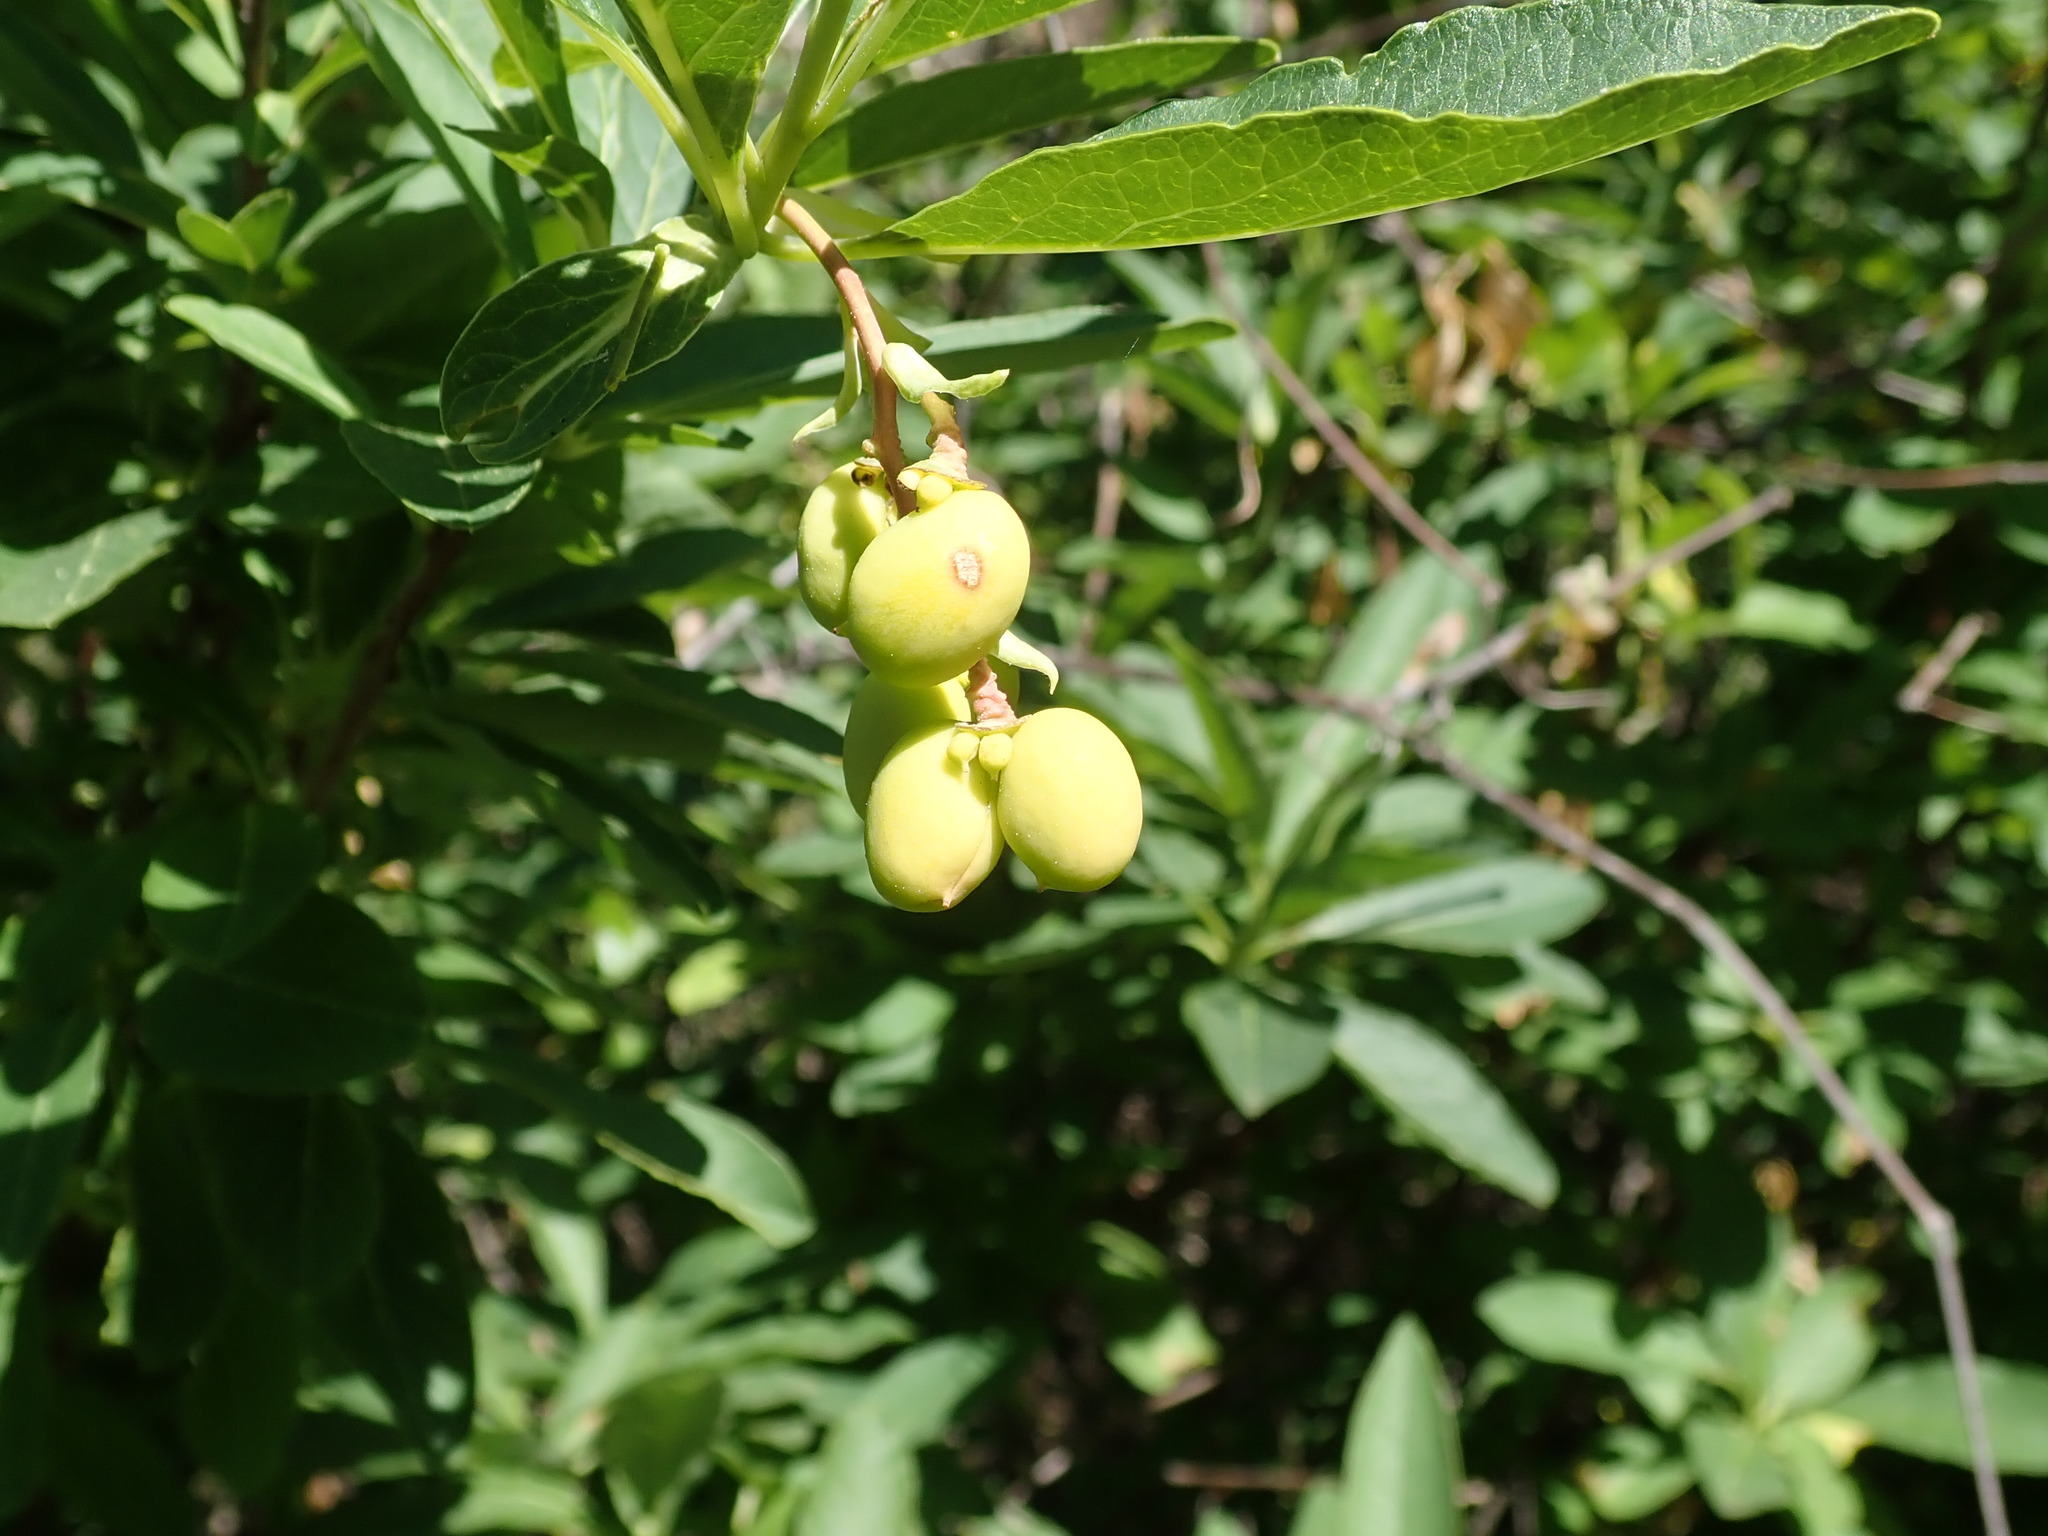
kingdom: Plantae
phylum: Tracheophyta
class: Magnoliopsida
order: Rosales
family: Rosaceae
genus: Oemleria
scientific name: Oemleria cerasiformis
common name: Osoberry
